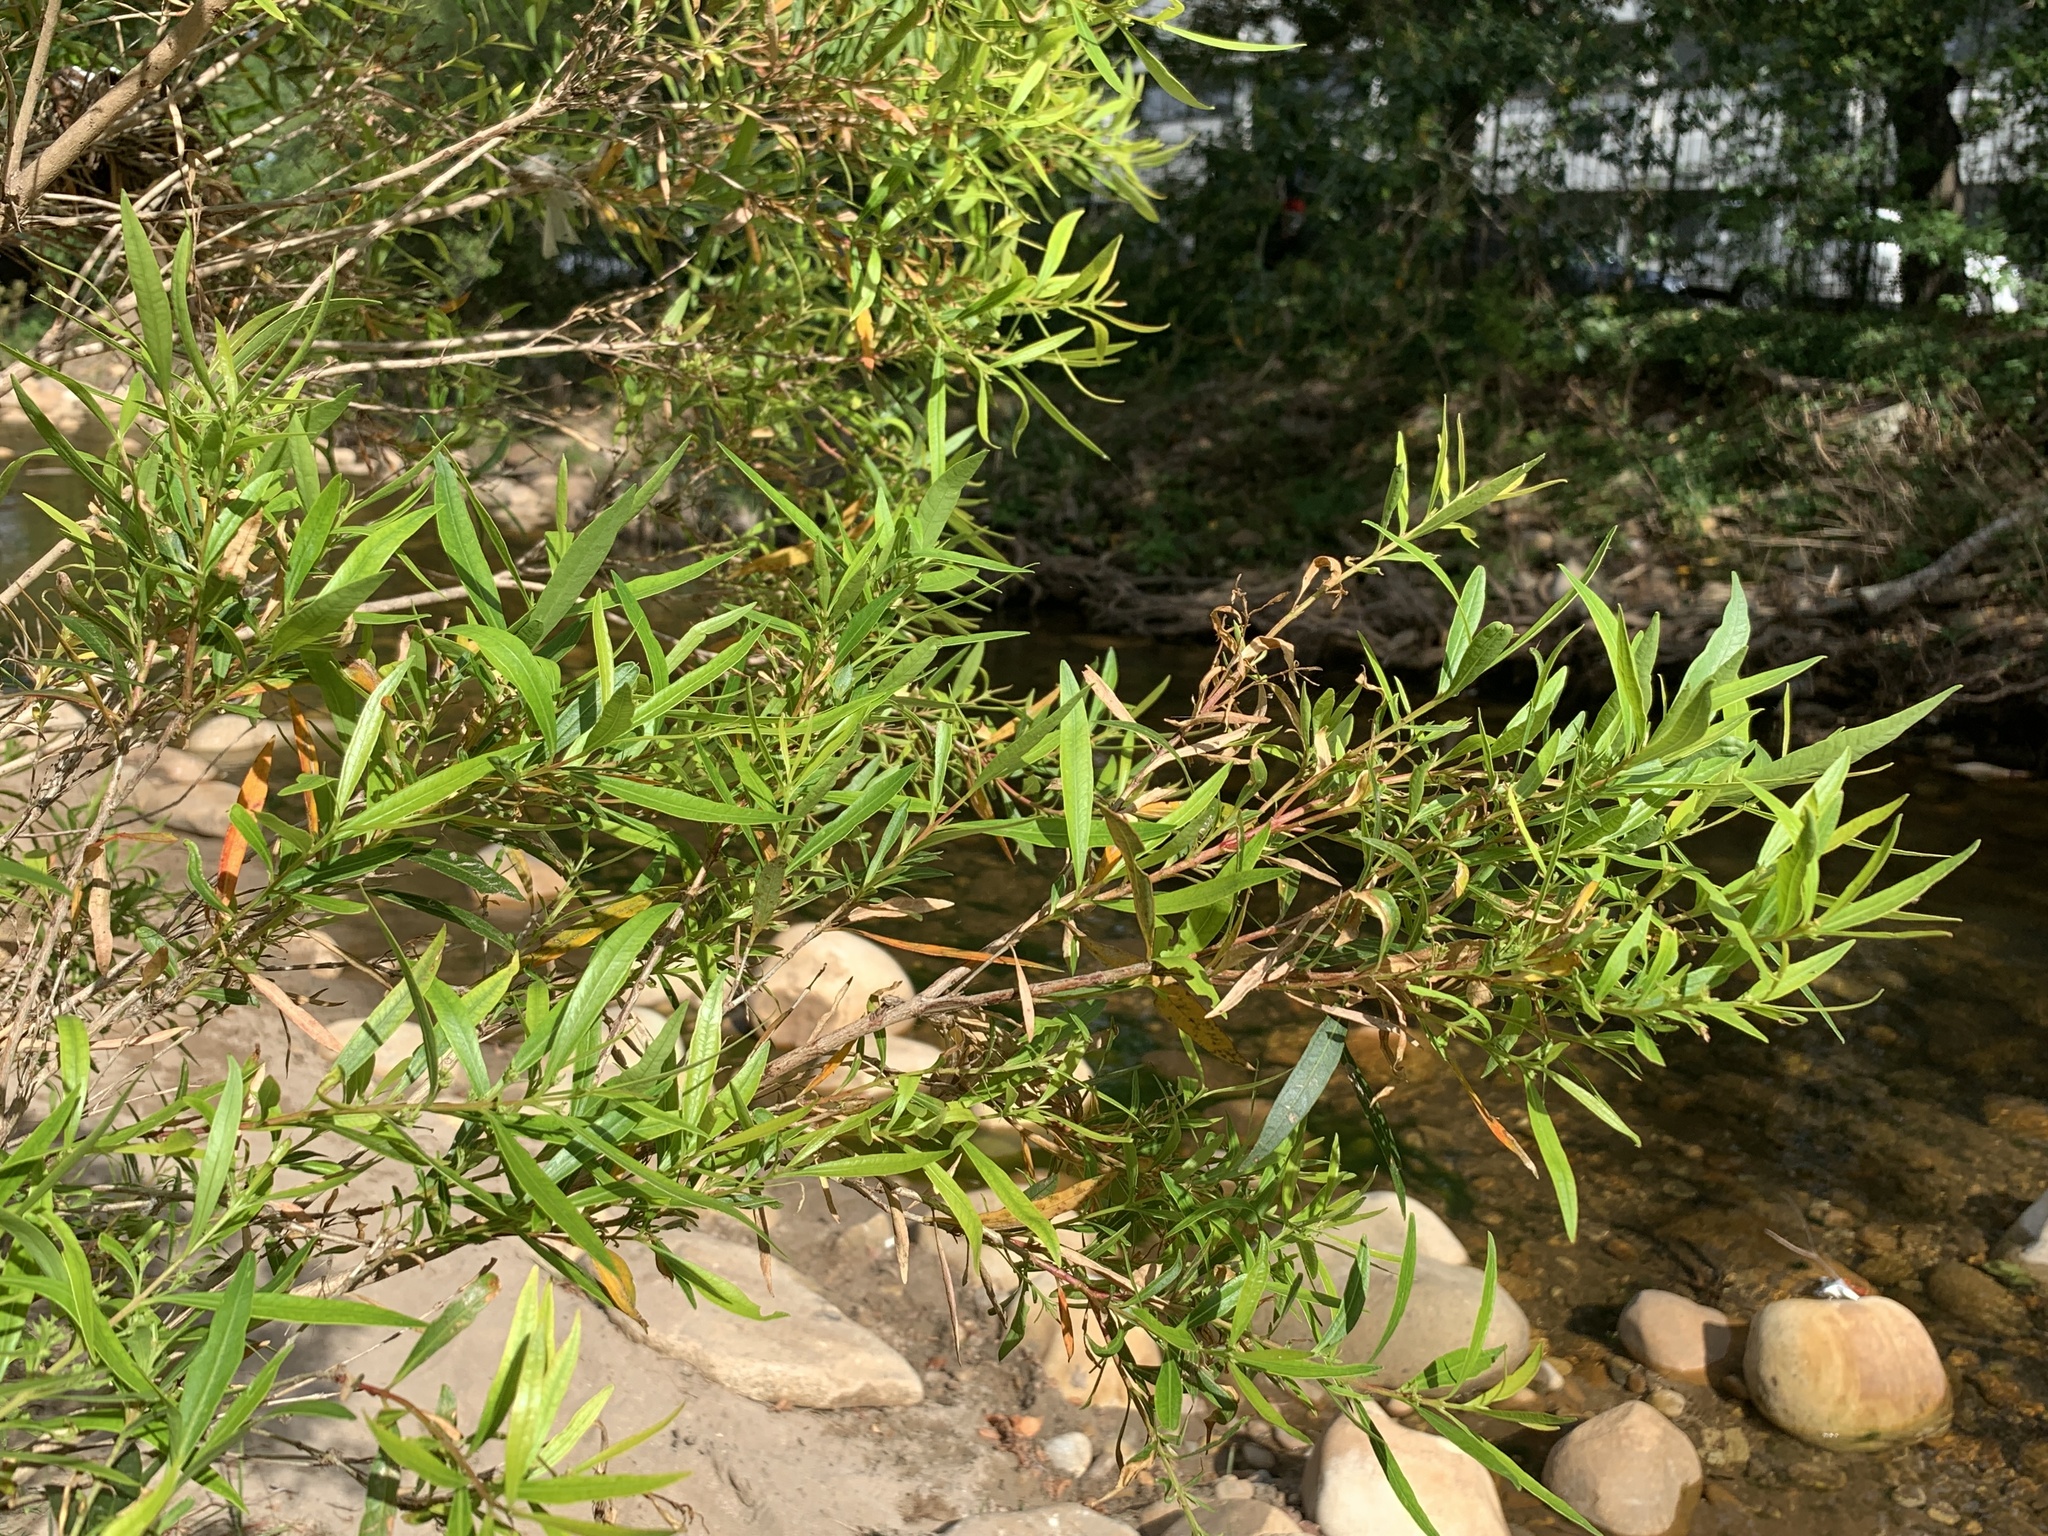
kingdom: Plantae
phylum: Tracheophyta
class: Magnoliopsida
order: Myrtales
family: Myrtaceae
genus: Callistemon
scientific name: Callistemon lanceolatus
